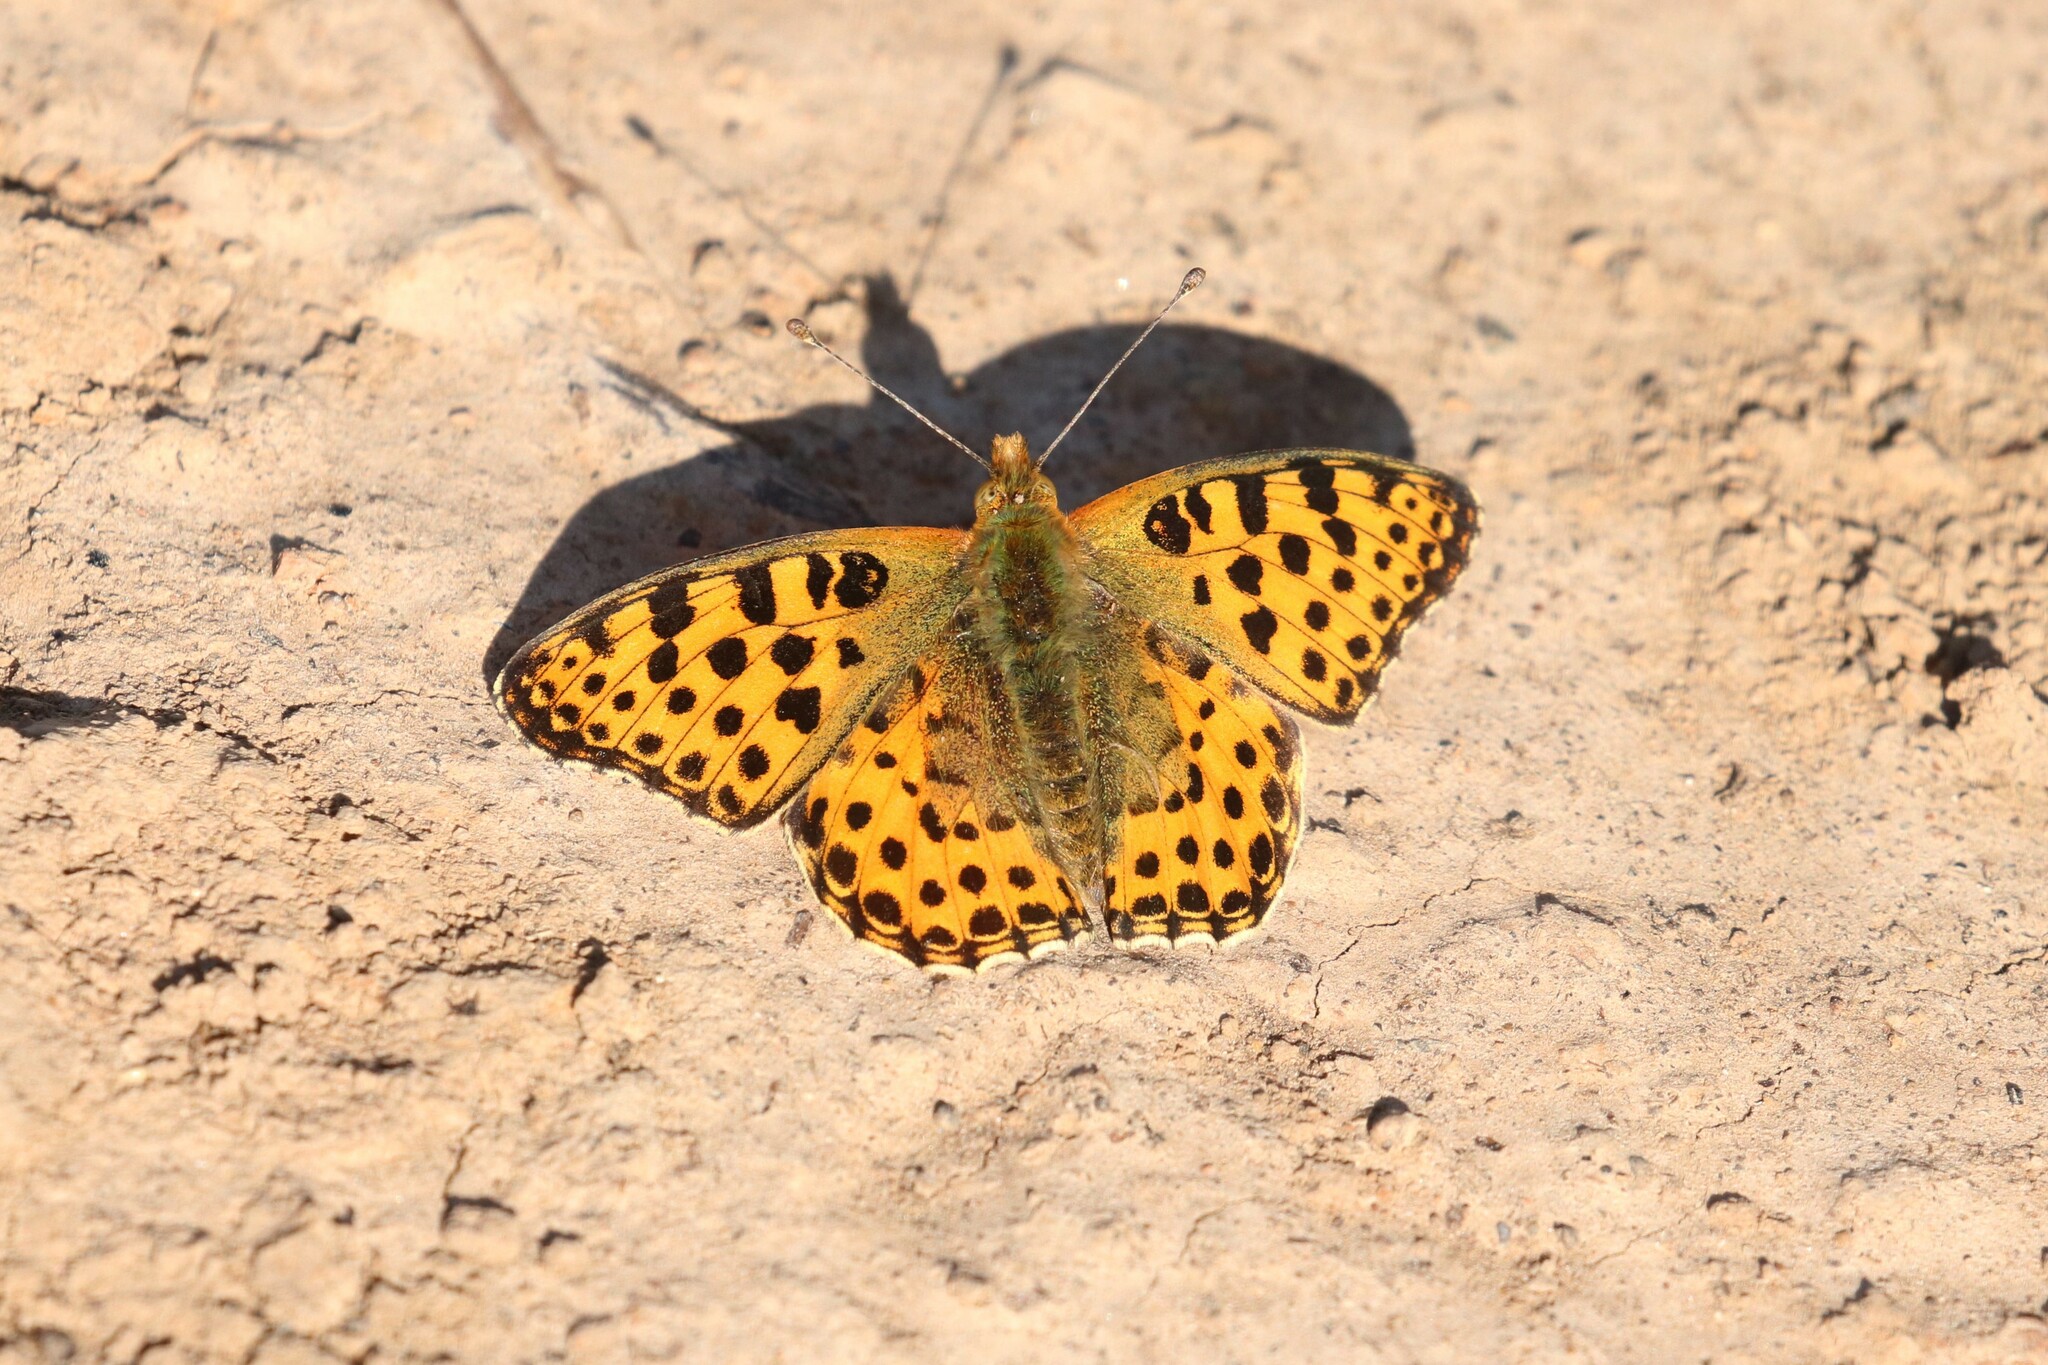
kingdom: Animalia
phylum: Arthropoda
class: Insecta
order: Lepidoptera
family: Nymphalidae
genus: Issoria
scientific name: Issoria lathonia
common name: Queen of spain fritillary
